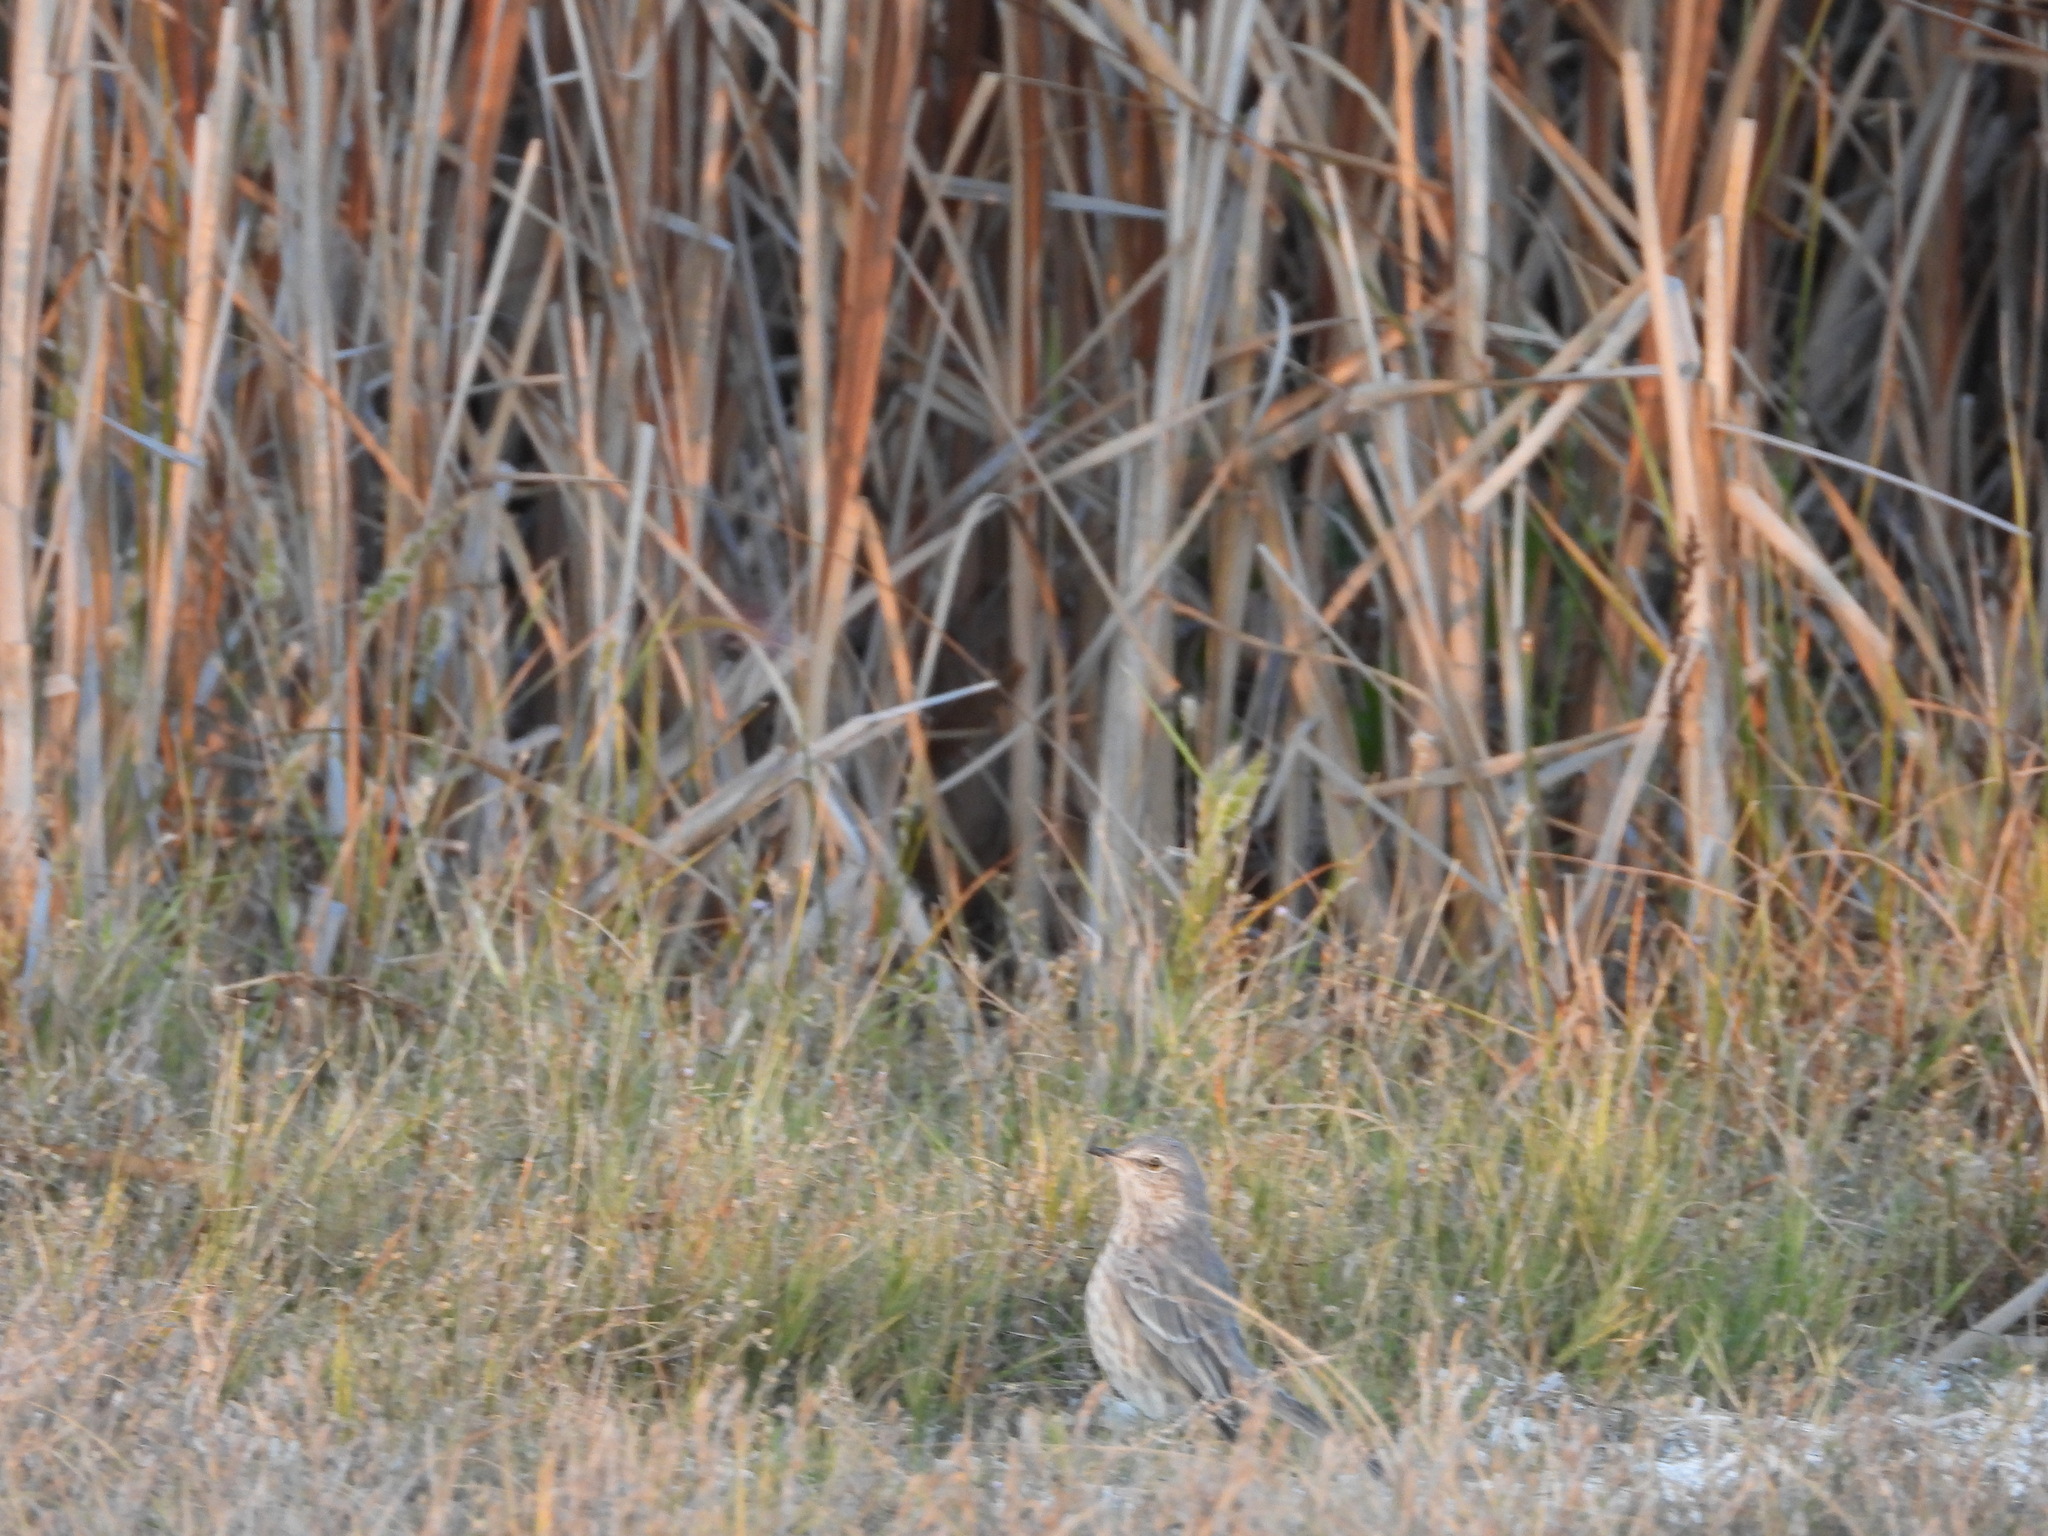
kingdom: Animalia
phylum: Chordata
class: Aves
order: Passeriformes
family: Mimidae
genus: Oreoscoptes
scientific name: Oreoscoptes montanus
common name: Sage thrasher
